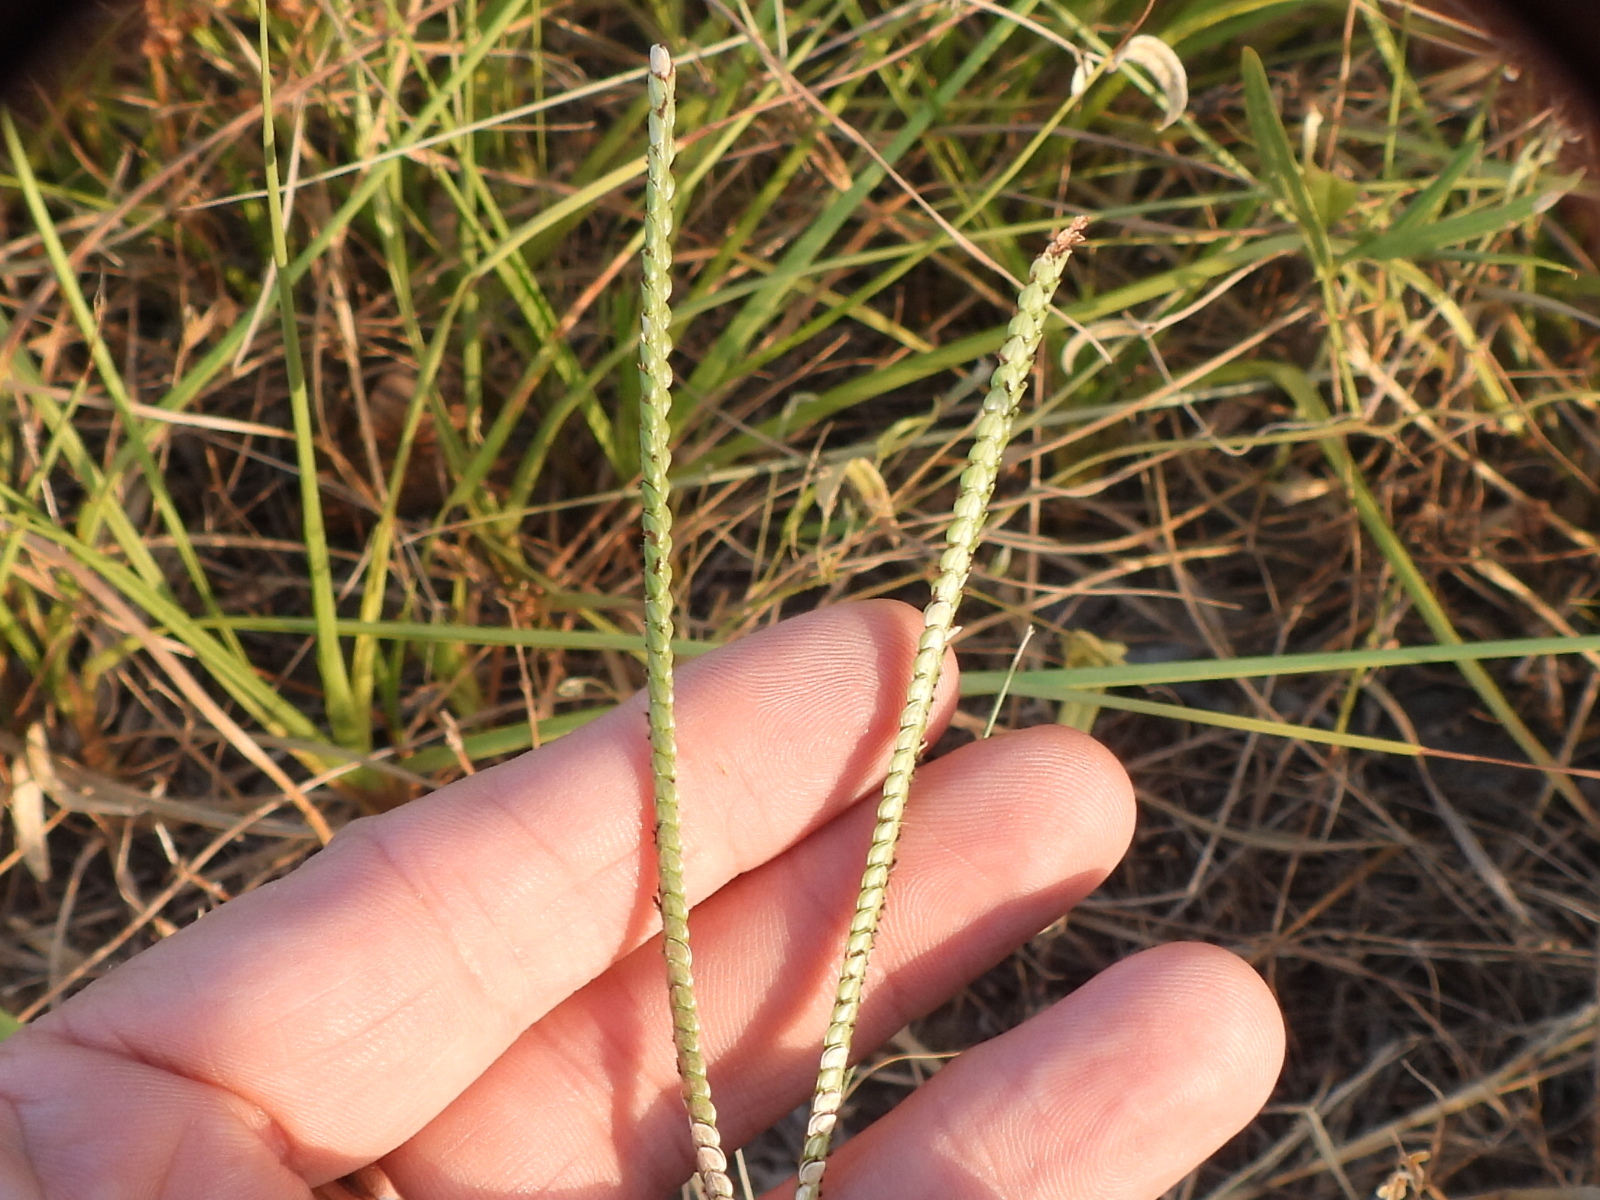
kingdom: Plantae
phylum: Tracheophyta
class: Liliopsida
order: Poales
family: Poaceae
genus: Paspalum
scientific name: Paspalum notatum
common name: Bahiagrass
